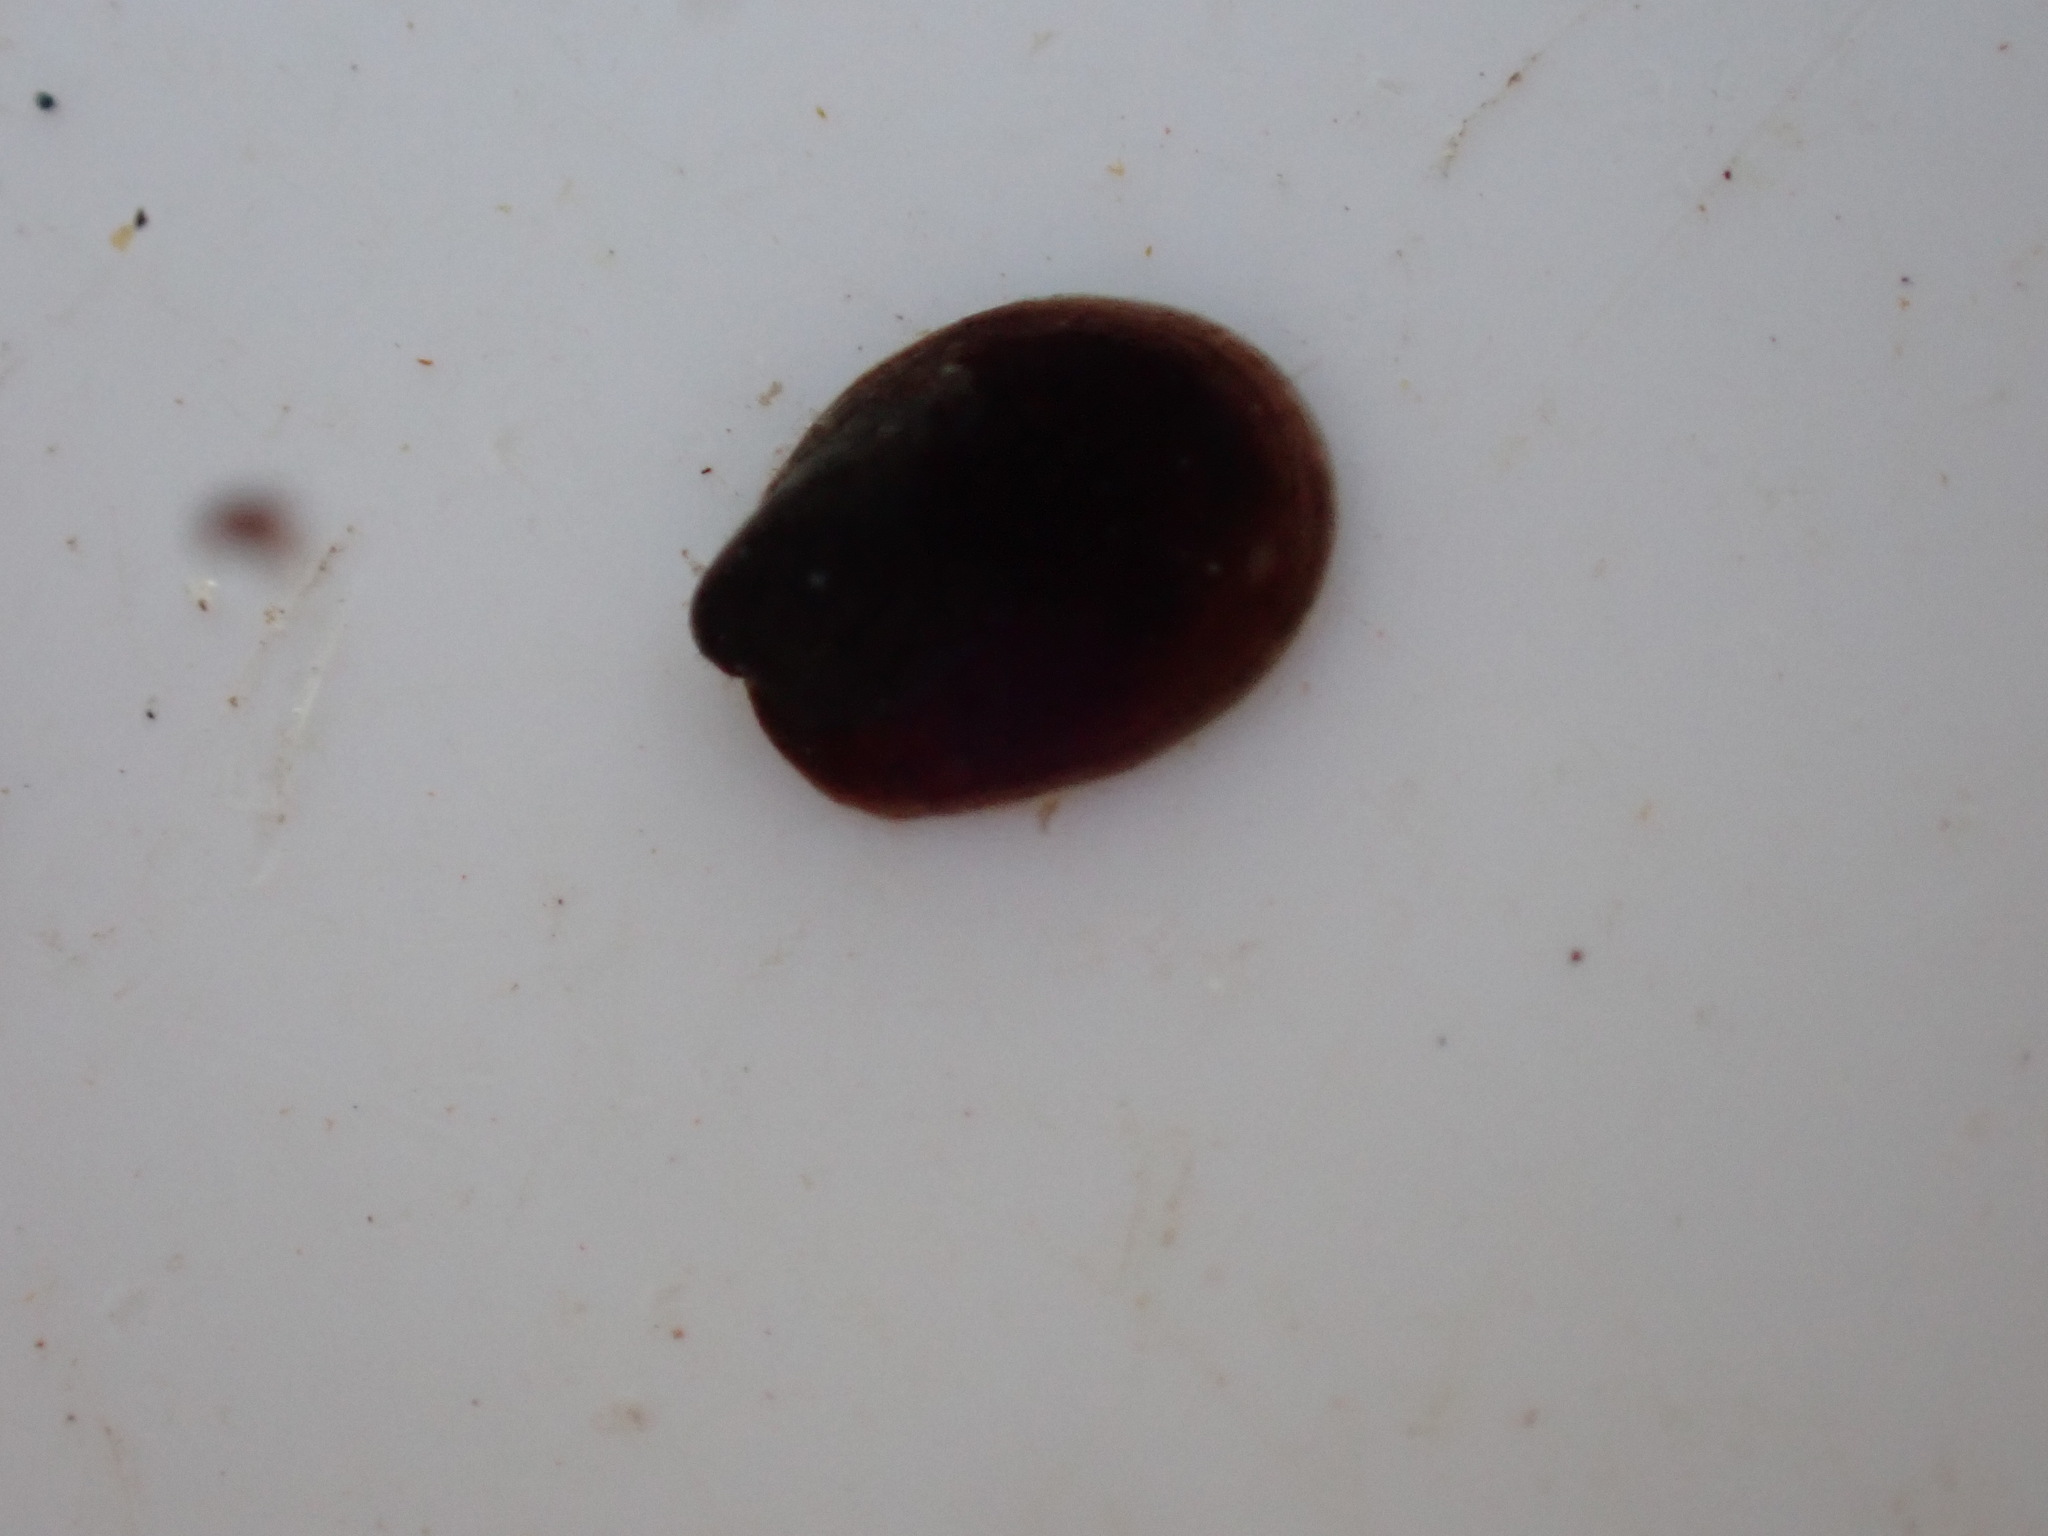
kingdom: Animalia
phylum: Mollusca
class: Gastropoda
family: Latiidae
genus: Latia
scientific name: Latia neritoides
